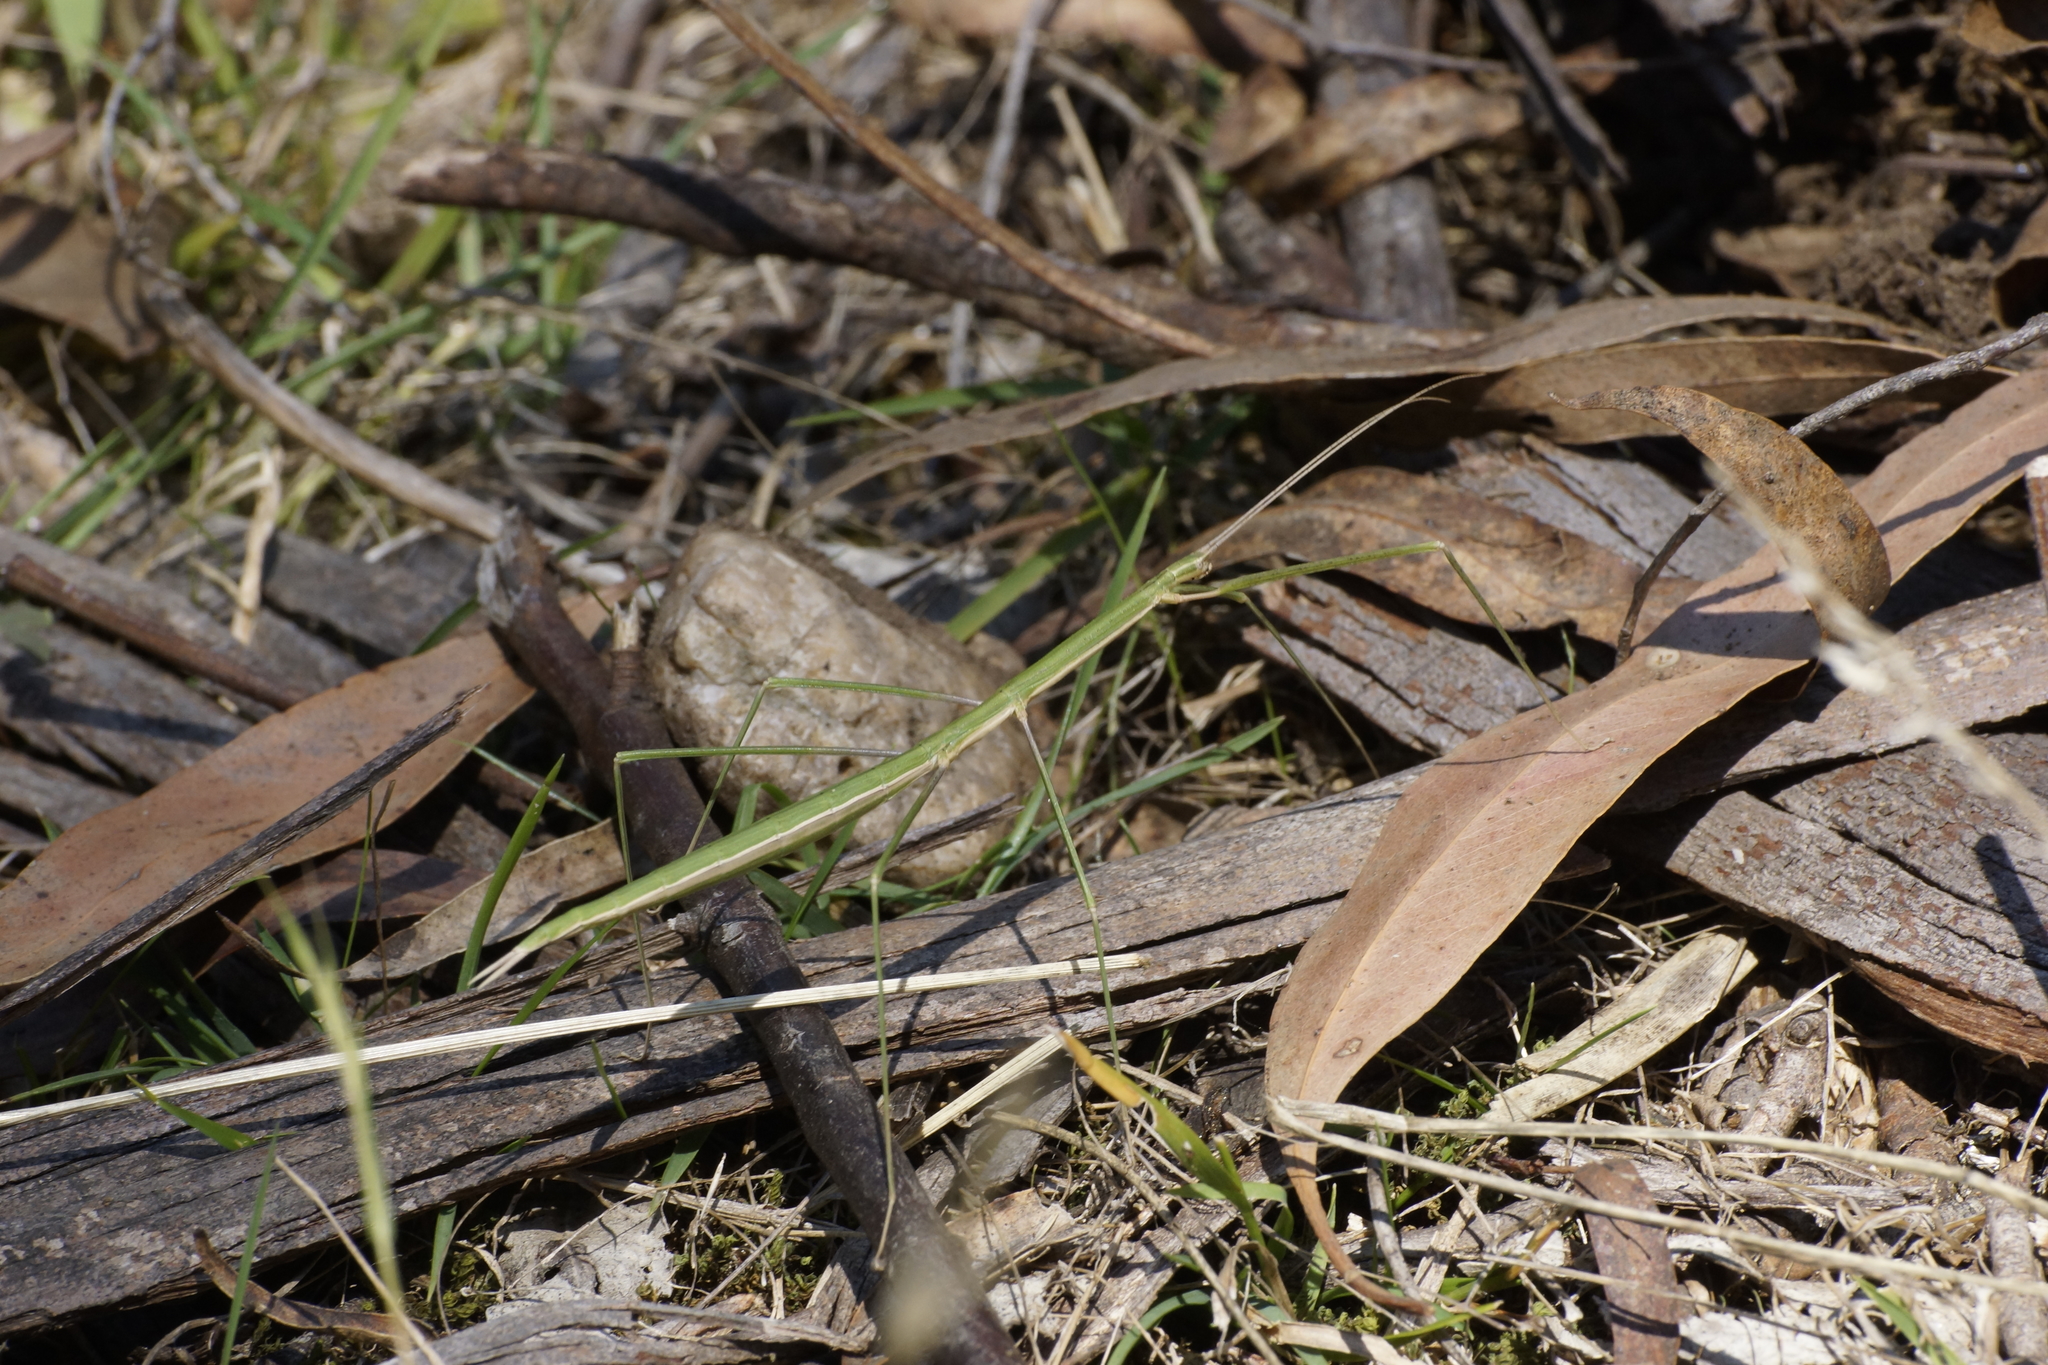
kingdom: Animalia
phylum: Arthropoda
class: Insecta
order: Phasmida
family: Lonchodidae
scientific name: Lonchodidae
